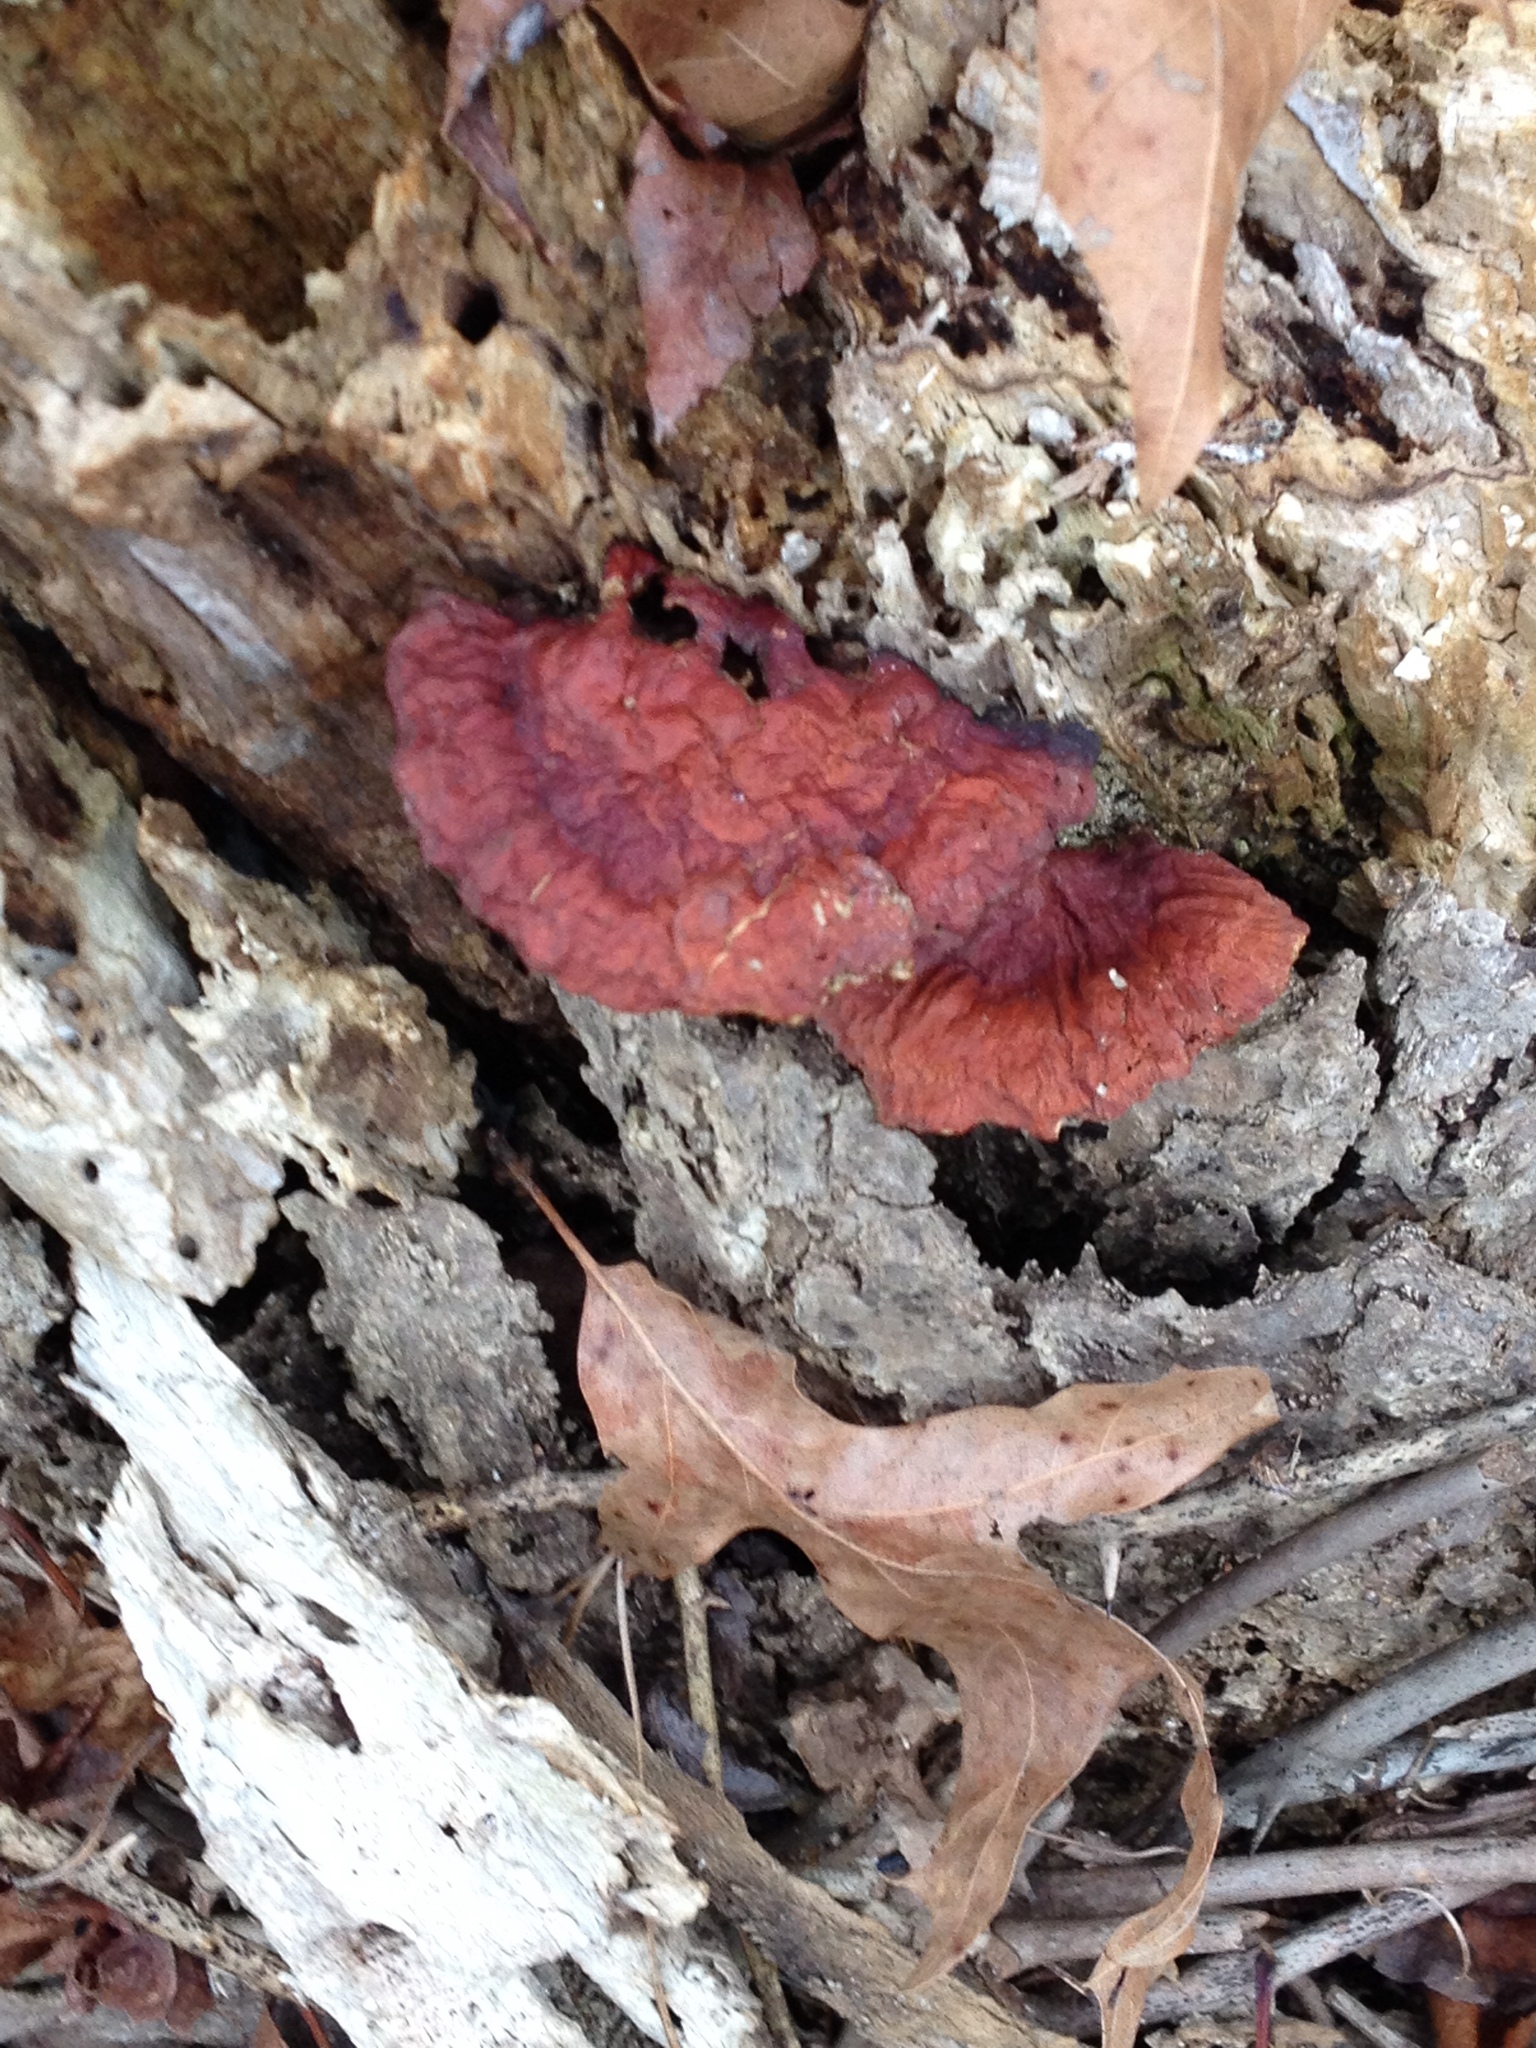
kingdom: Fungi
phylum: Basidiomycota
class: Agaricomycetes
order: Polyporales
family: Polyporaceae
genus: Ganoderma
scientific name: Ganoderma resinaceum
